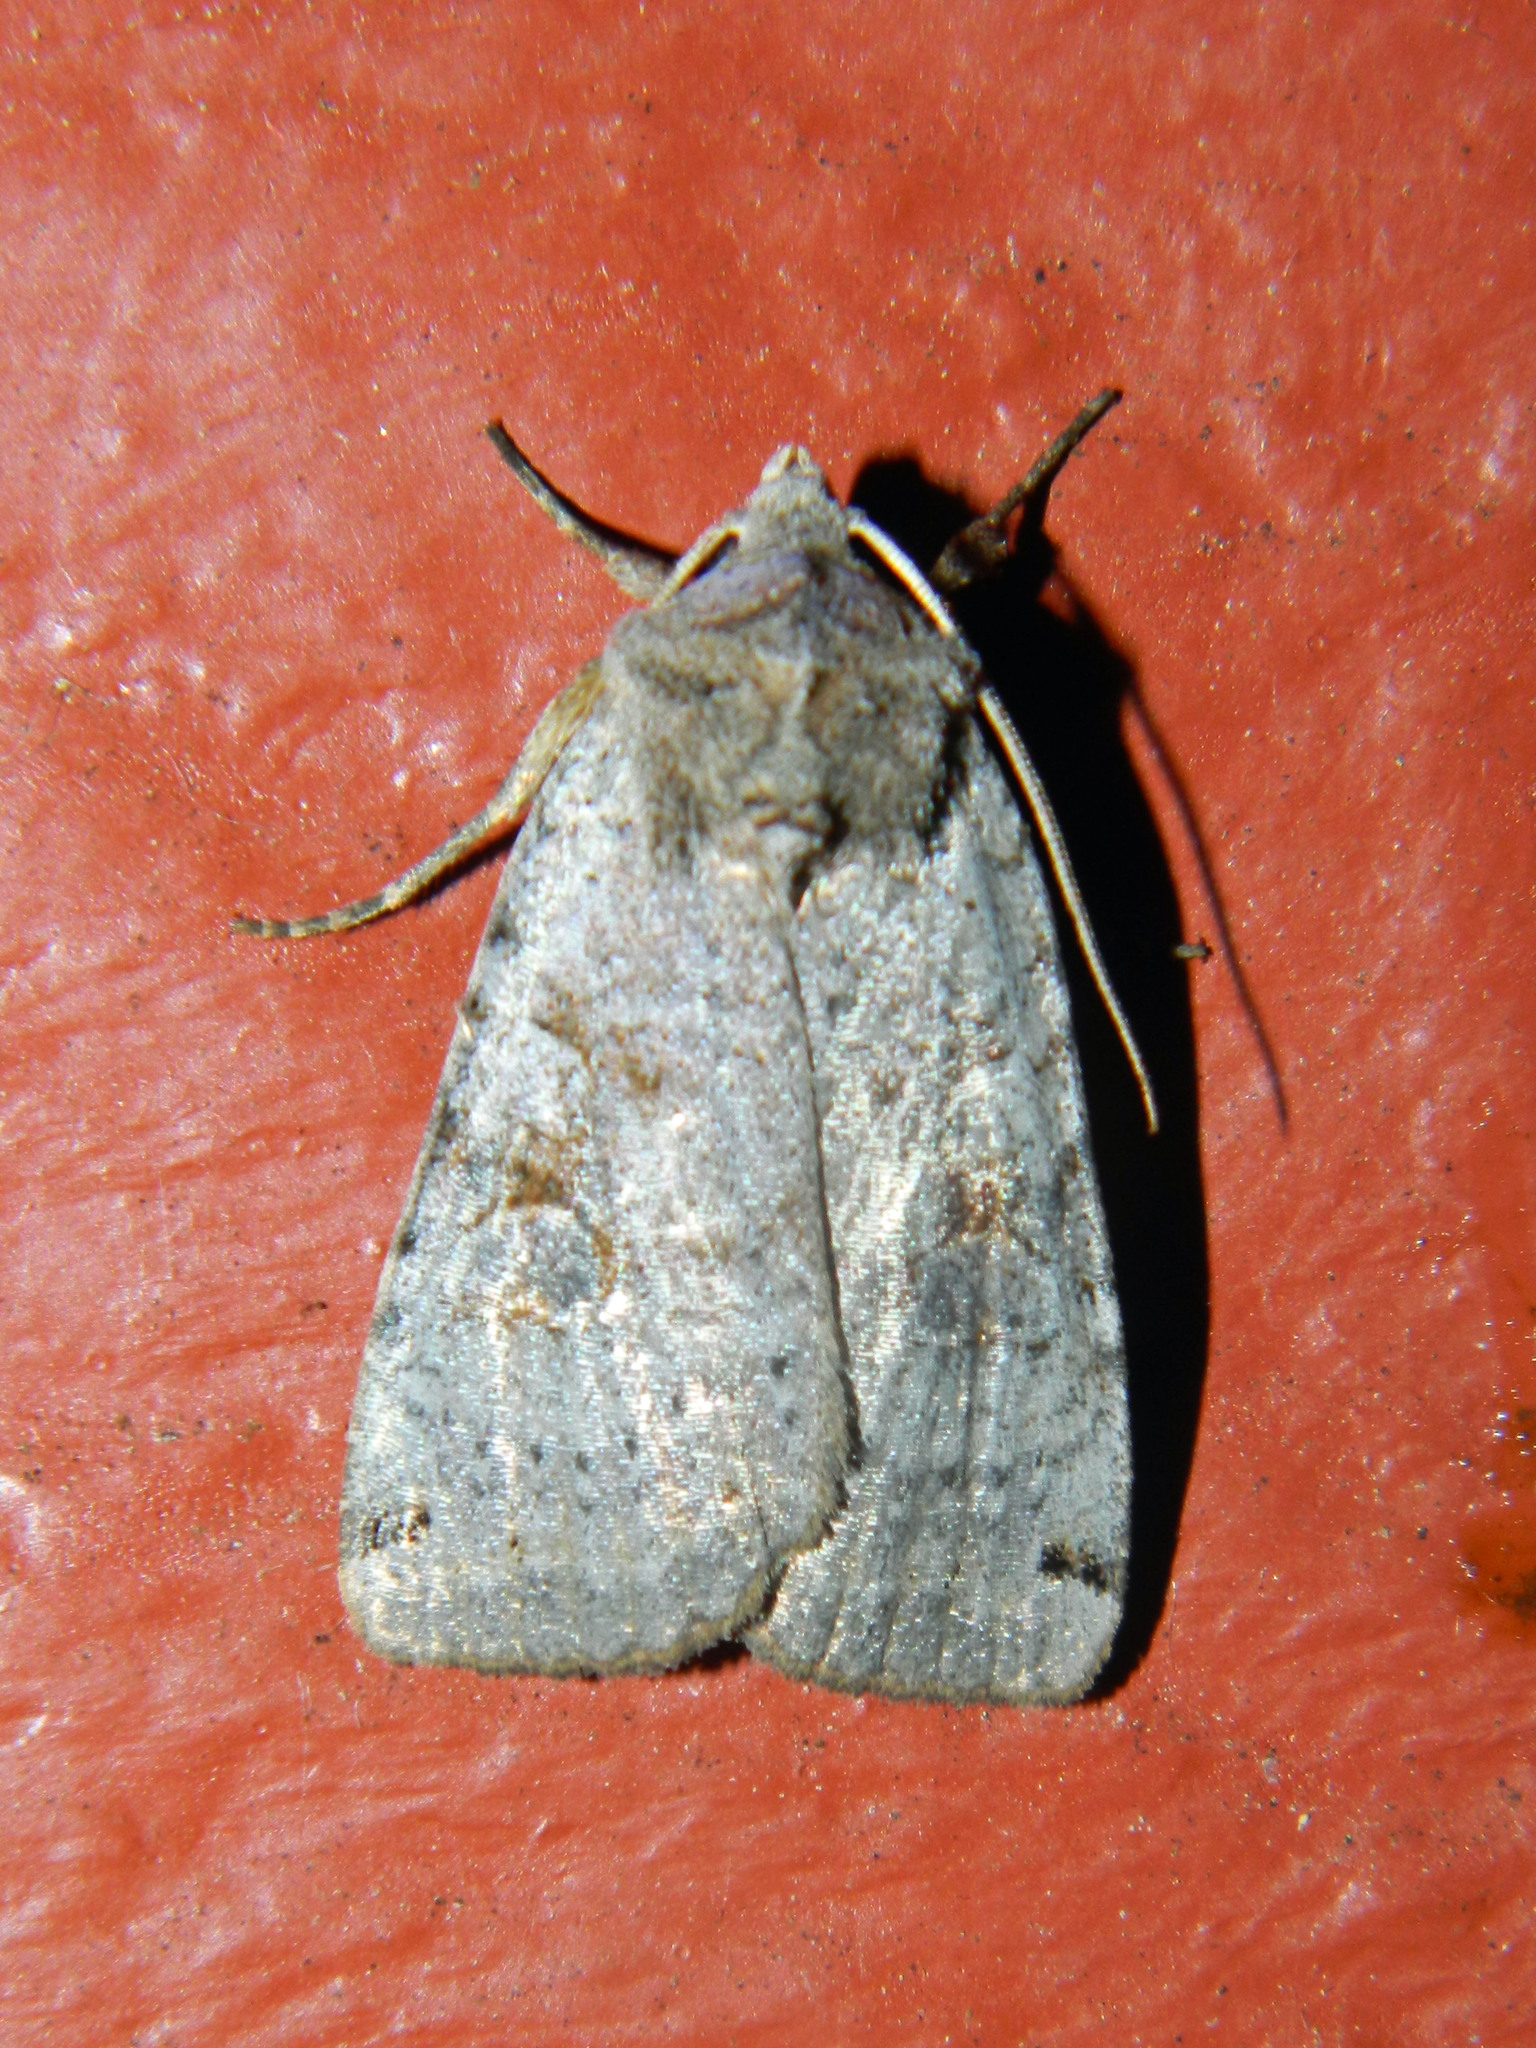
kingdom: Animalia
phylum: Arthropoda
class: Insecta
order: Lepidoptera
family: Noctuidae
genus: Xestia
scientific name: Xestia smithii
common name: Smith's dart
